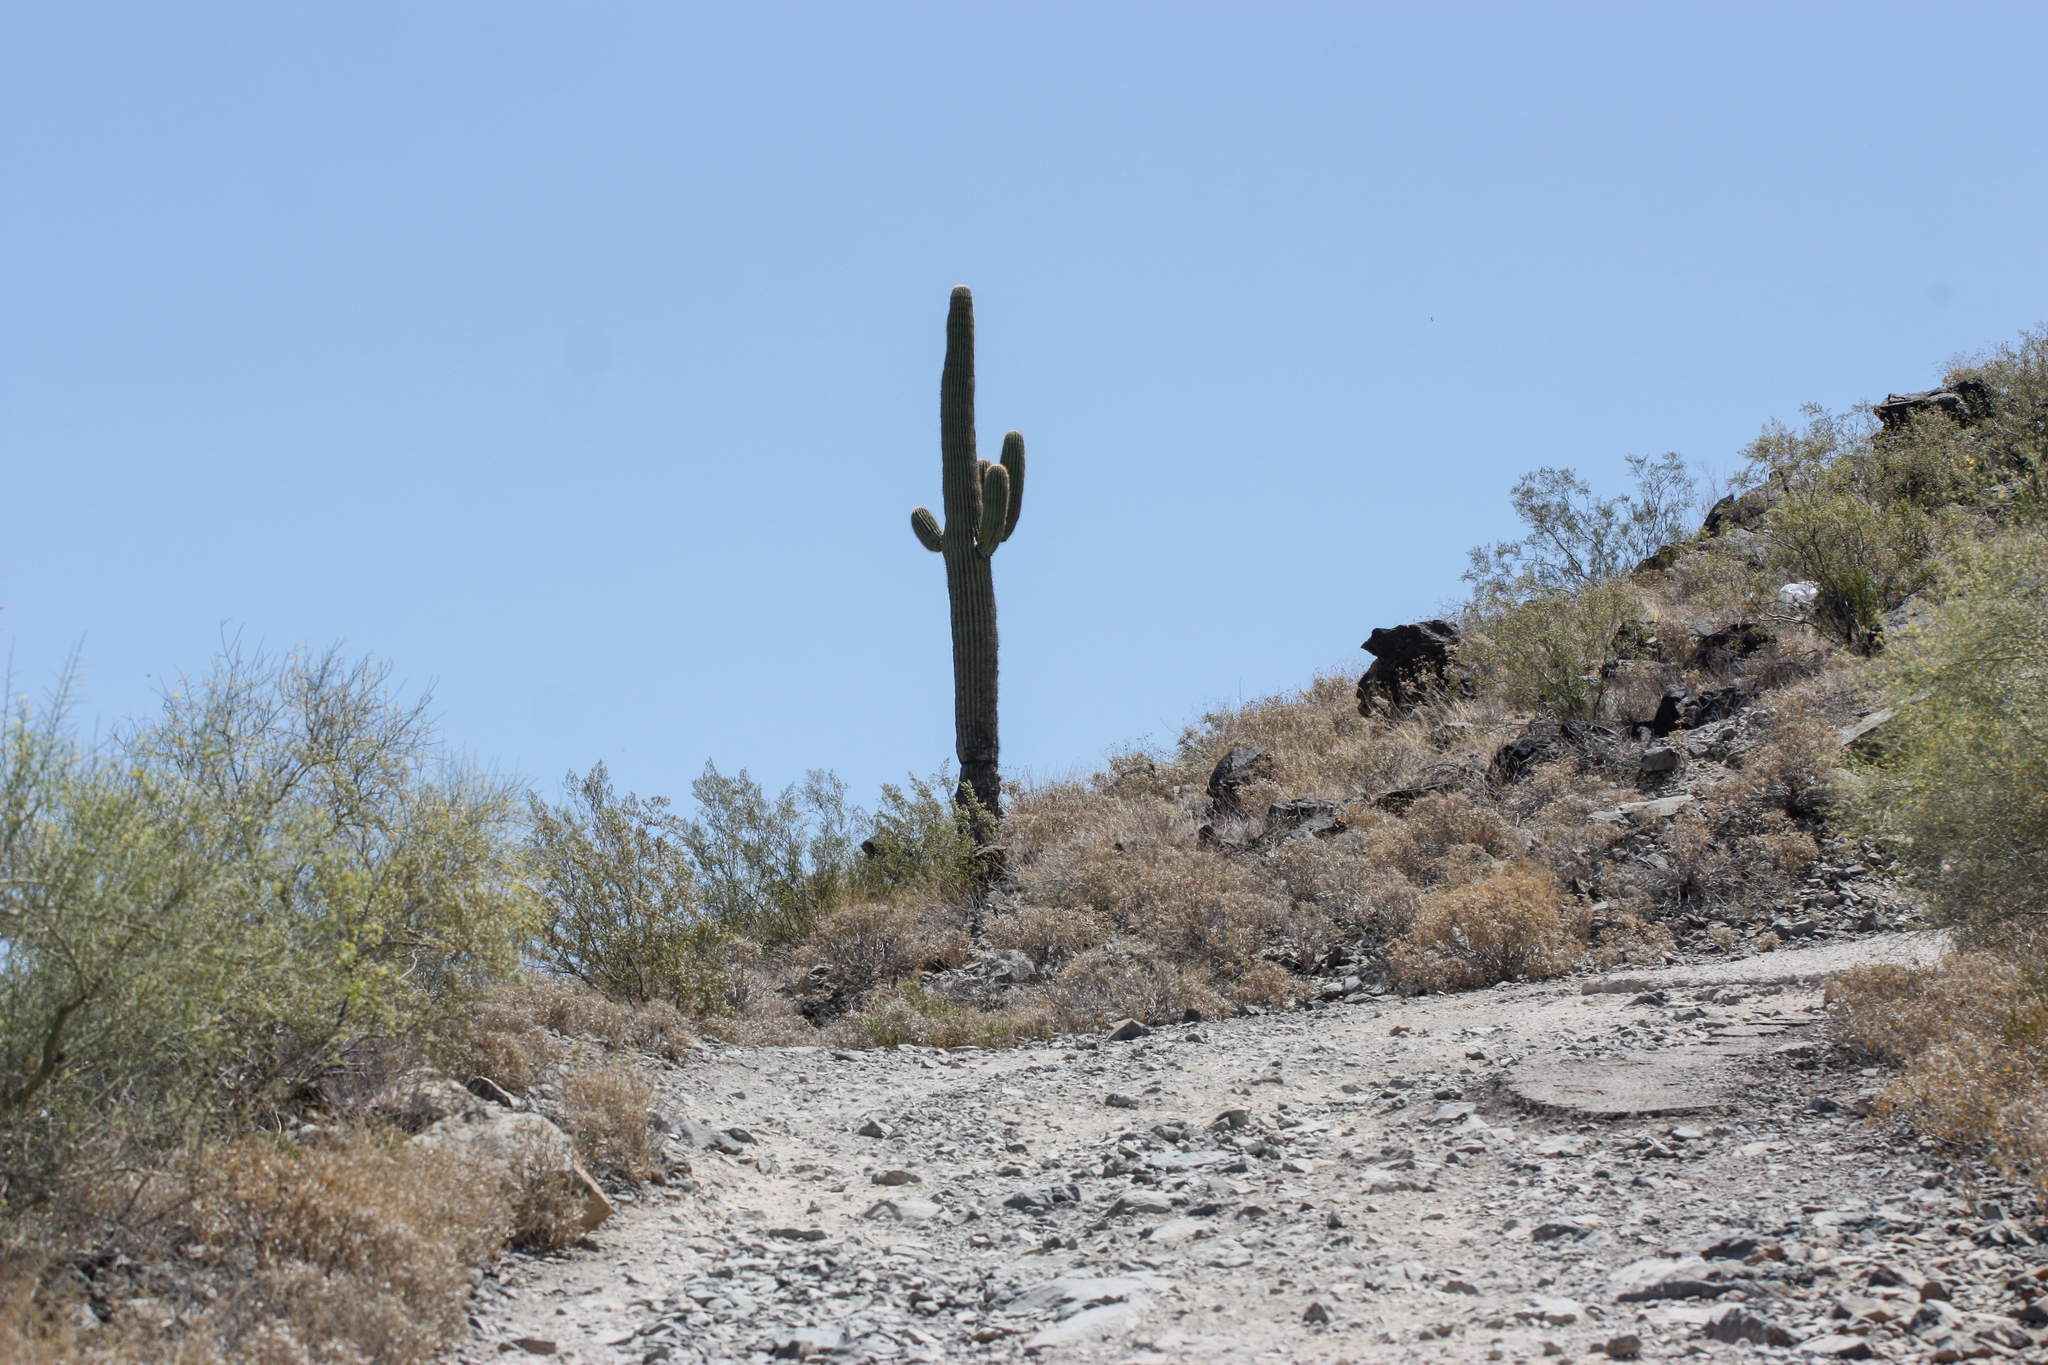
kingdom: Plantae
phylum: Tracheophyta
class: Magnoliopsida
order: Caryophyllales
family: Cactaceae
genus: Carnegiea
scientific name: Carnegiea gigantea
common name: Saguaro
